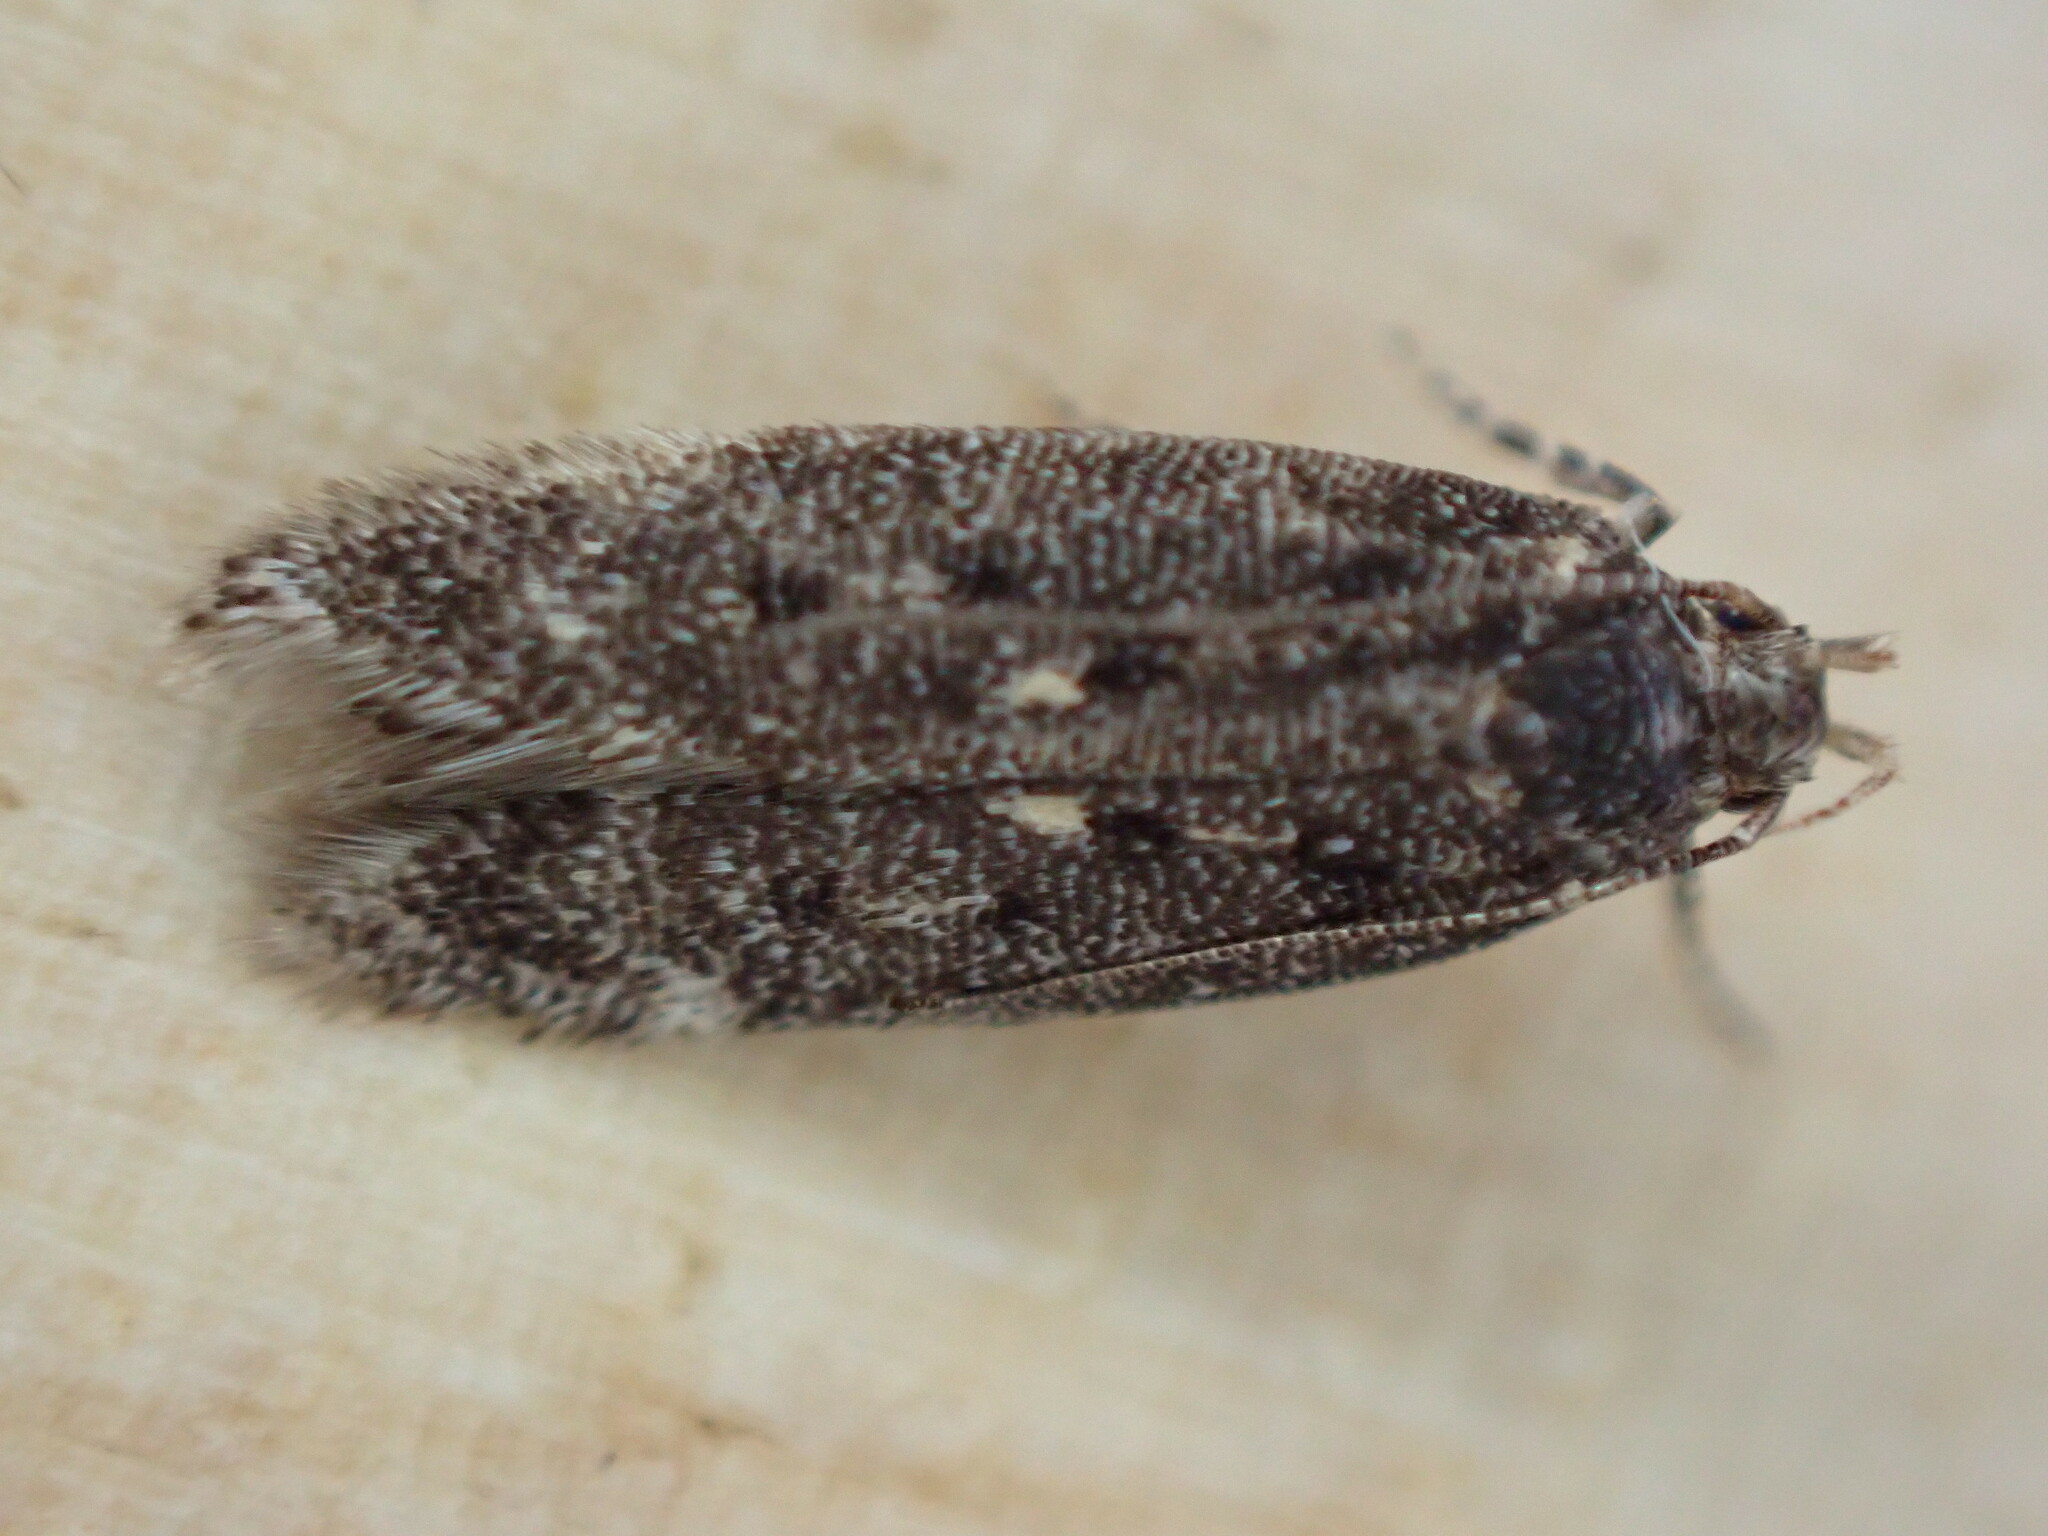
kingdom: Animalia
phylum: Arthropoda
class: Insecta
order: Lepidoptera
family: Gelechiidae
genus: Bryotropha
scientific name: Bryotropha affinis
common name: Dark groundling
